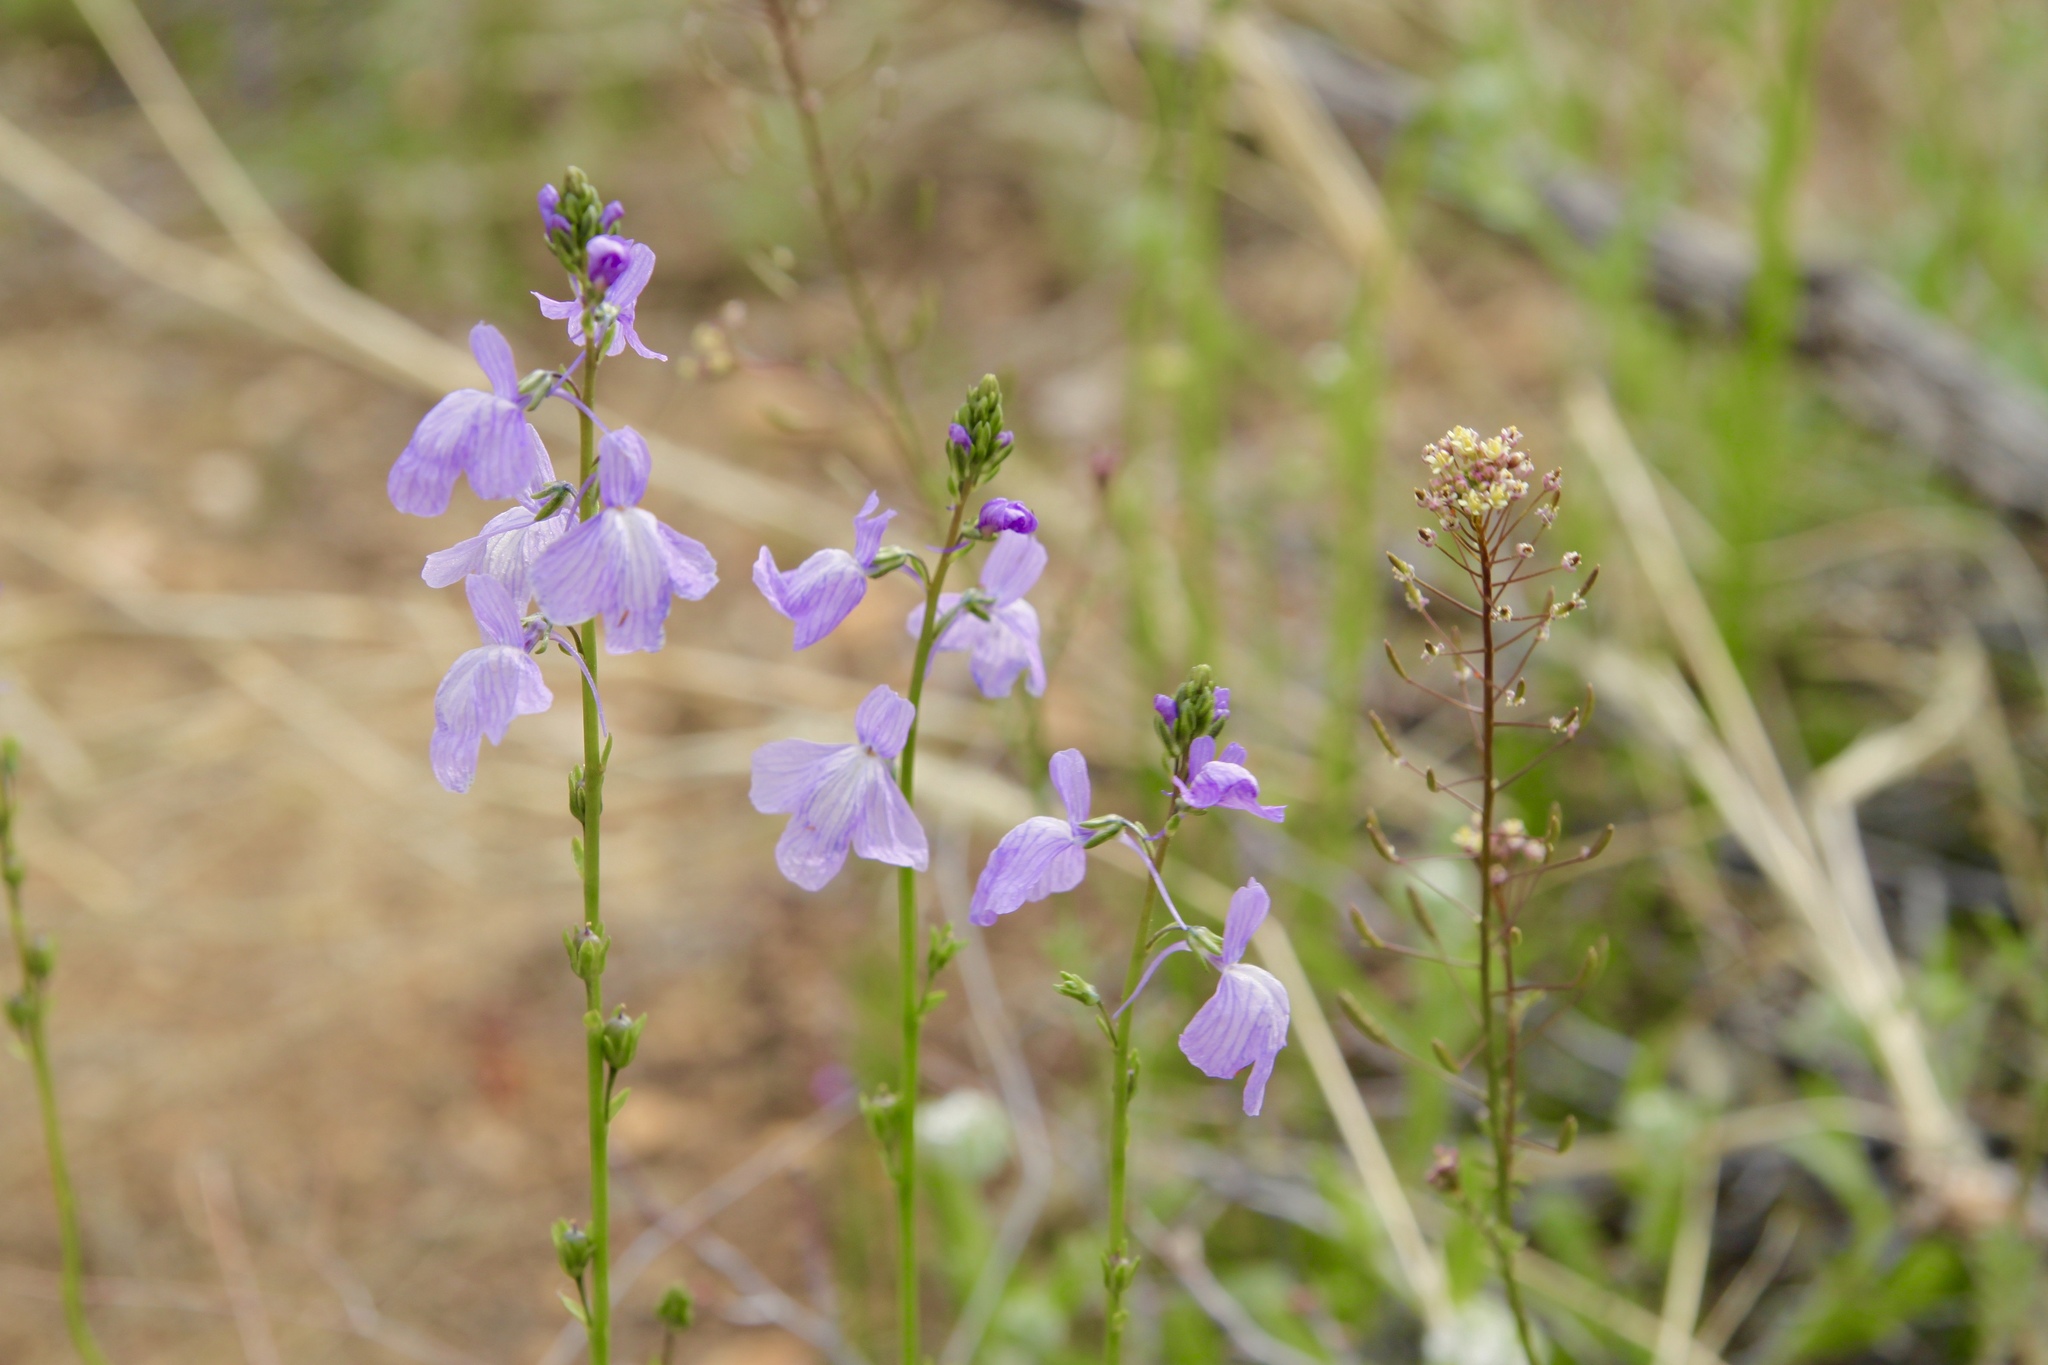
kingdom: Plantae
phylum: Tracheophyta
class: Magnoliopsida
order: Lamiales
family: Plantaginaceae
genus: Nuttallanthus
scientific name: Nuttallanthus texanus
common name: Texas toadflax
